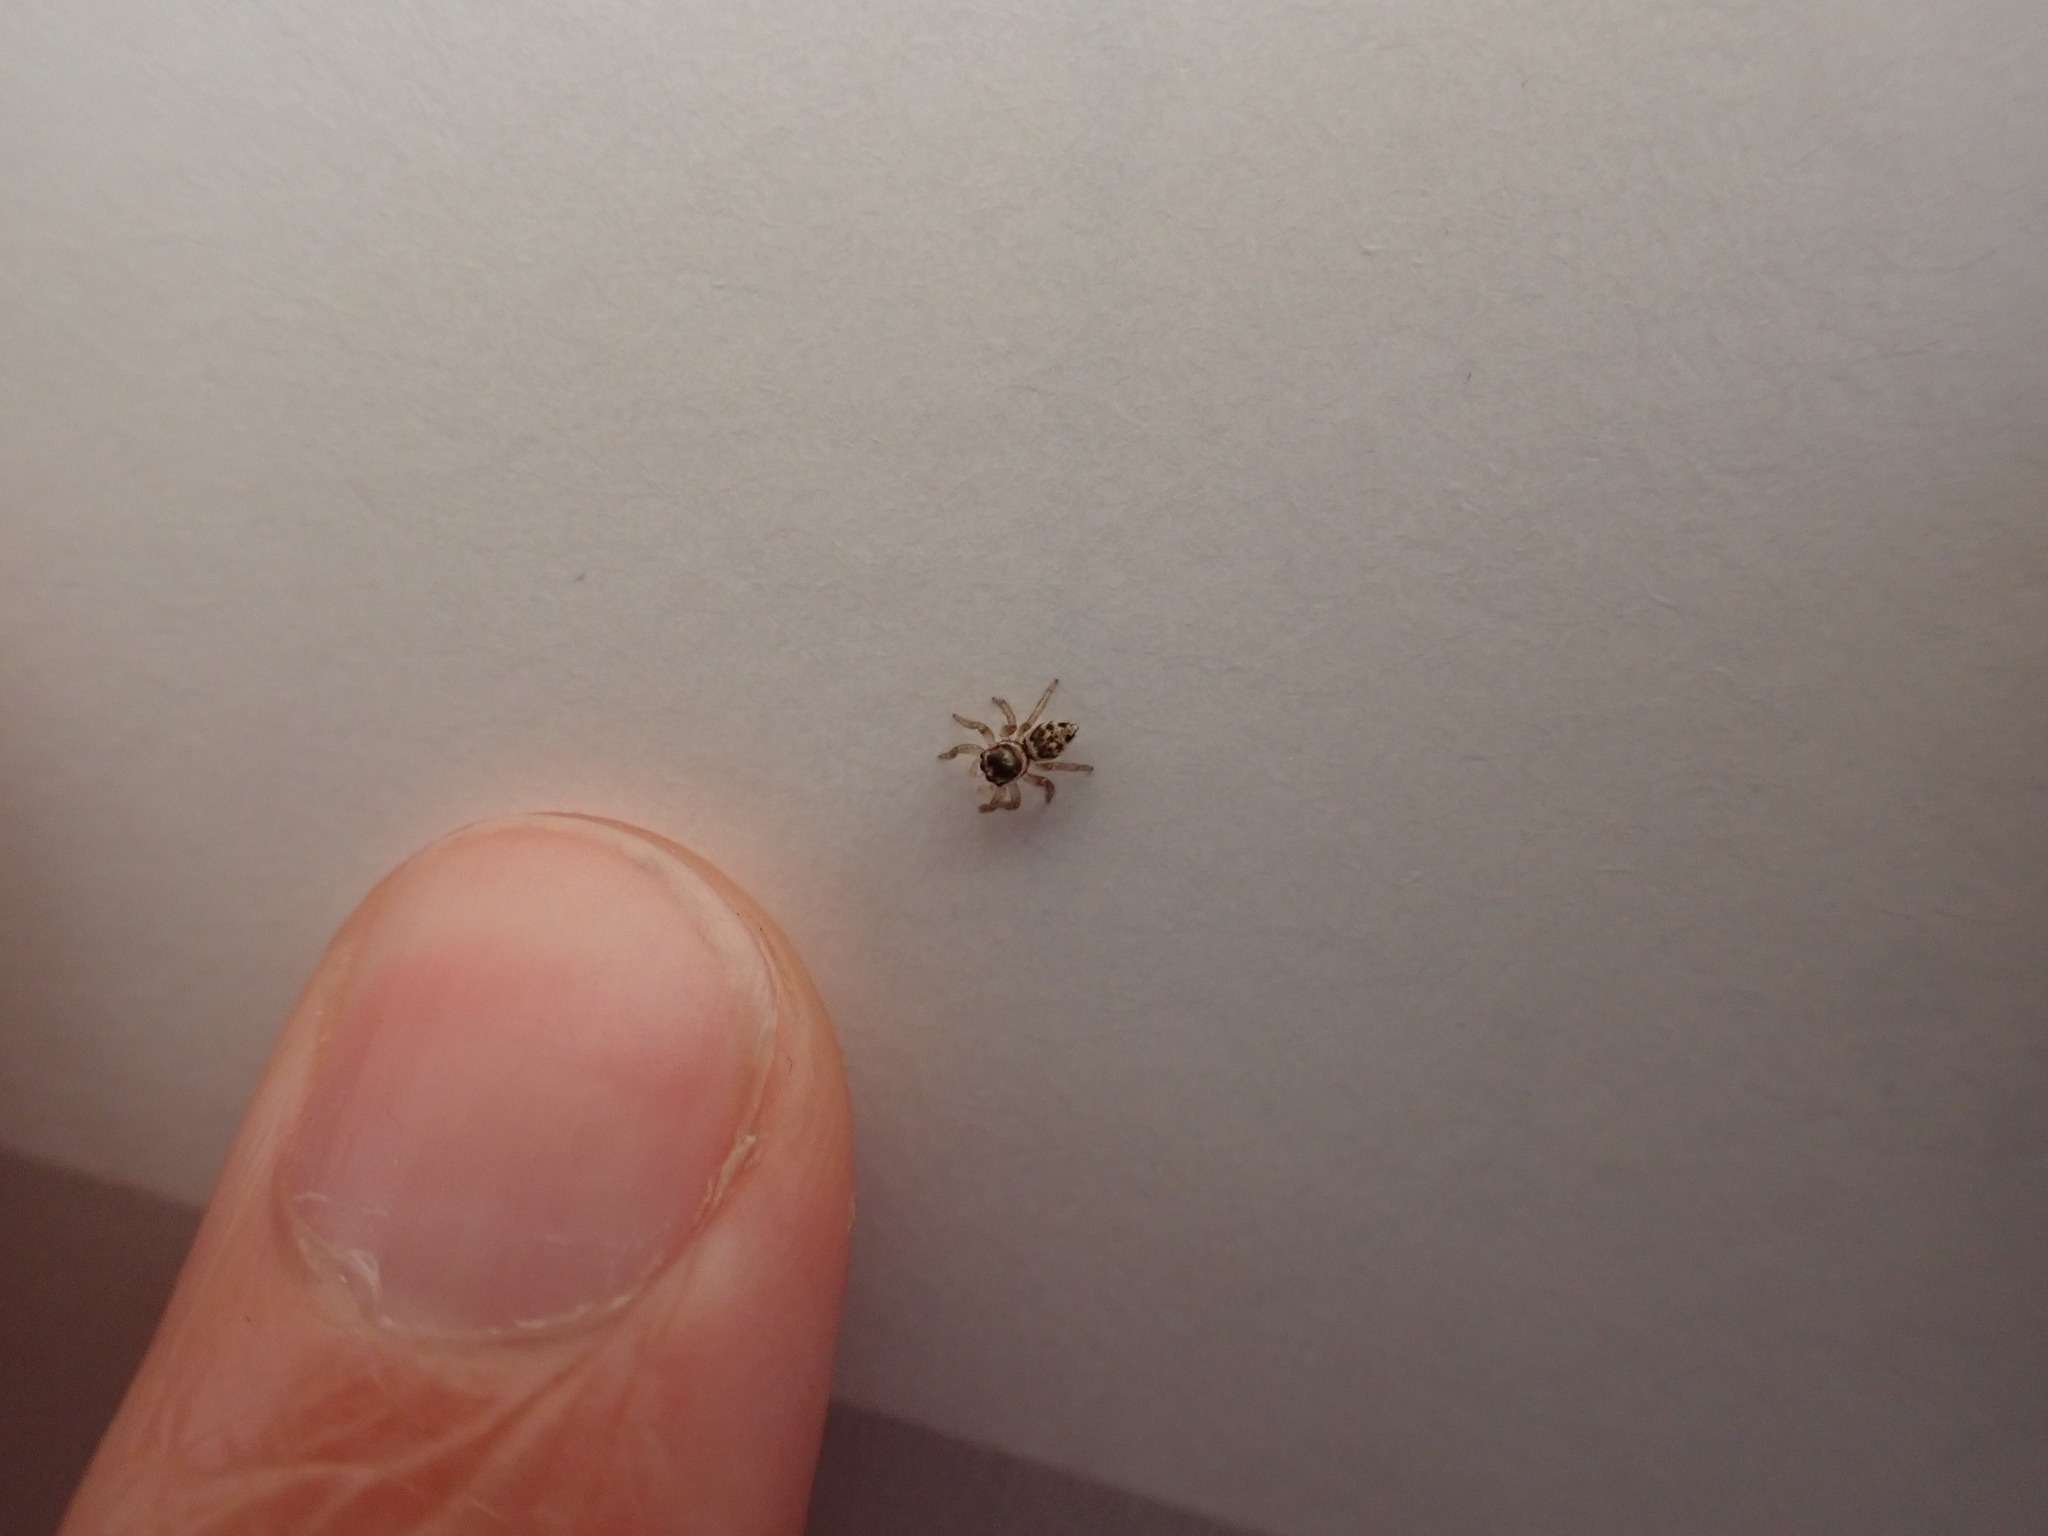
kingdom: Animalia
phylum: Arthropoda
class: Arachnida
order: Araneae
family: Salticidae
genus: Maratus
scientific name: Maratus griseus
